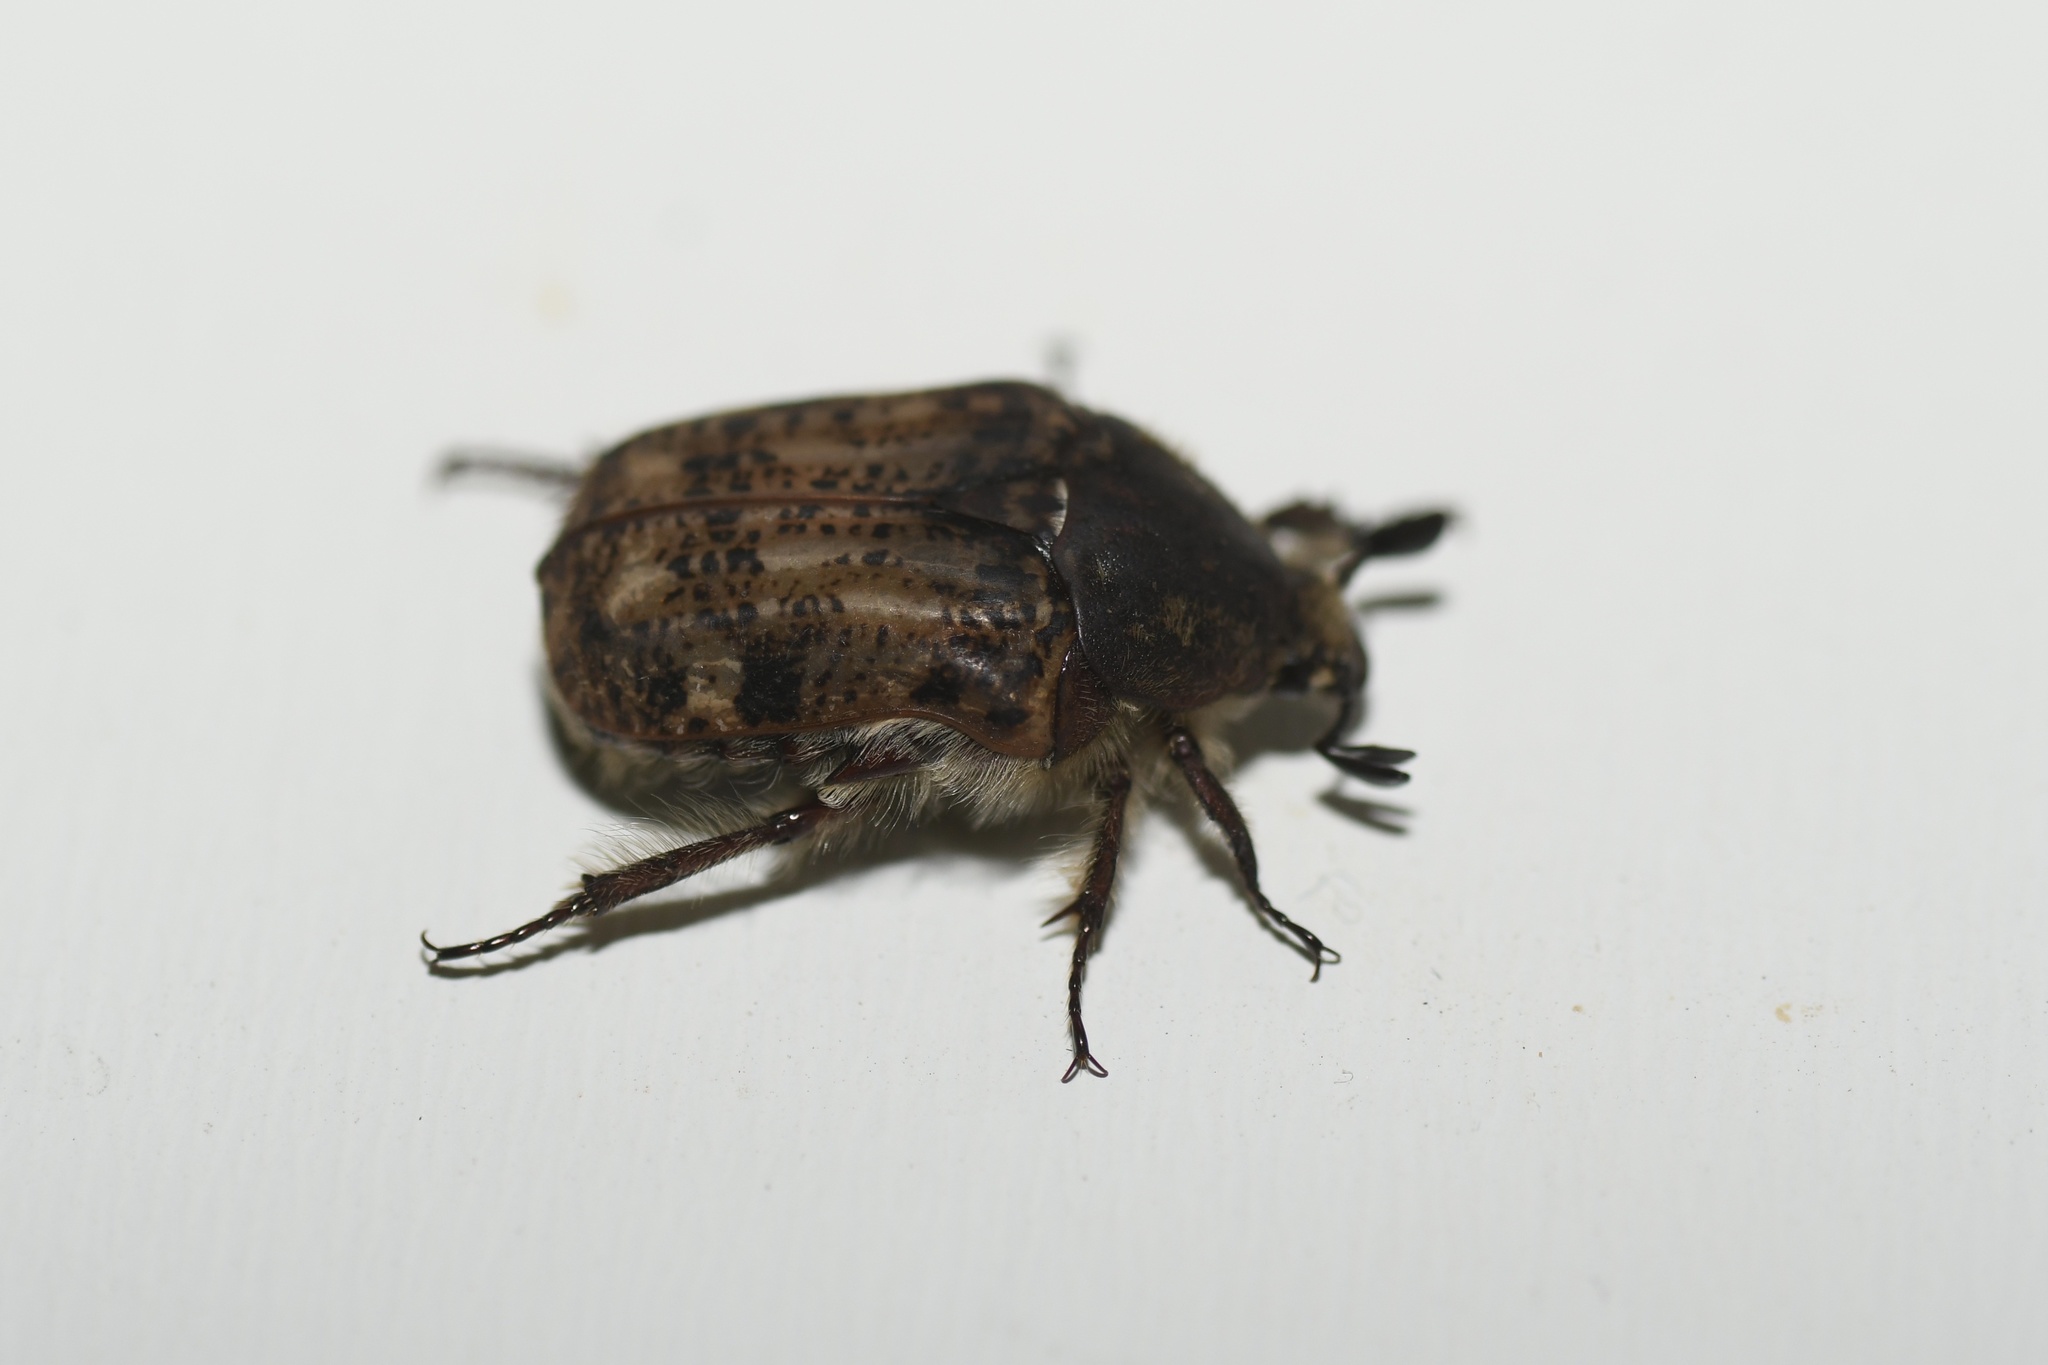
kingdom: Animalia
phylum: Arthropoda
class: Insecta
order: Coleoptera
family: Scarabaeidae
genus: Euphoria
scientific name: Euphoria inda
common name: Bumble flower beetle
